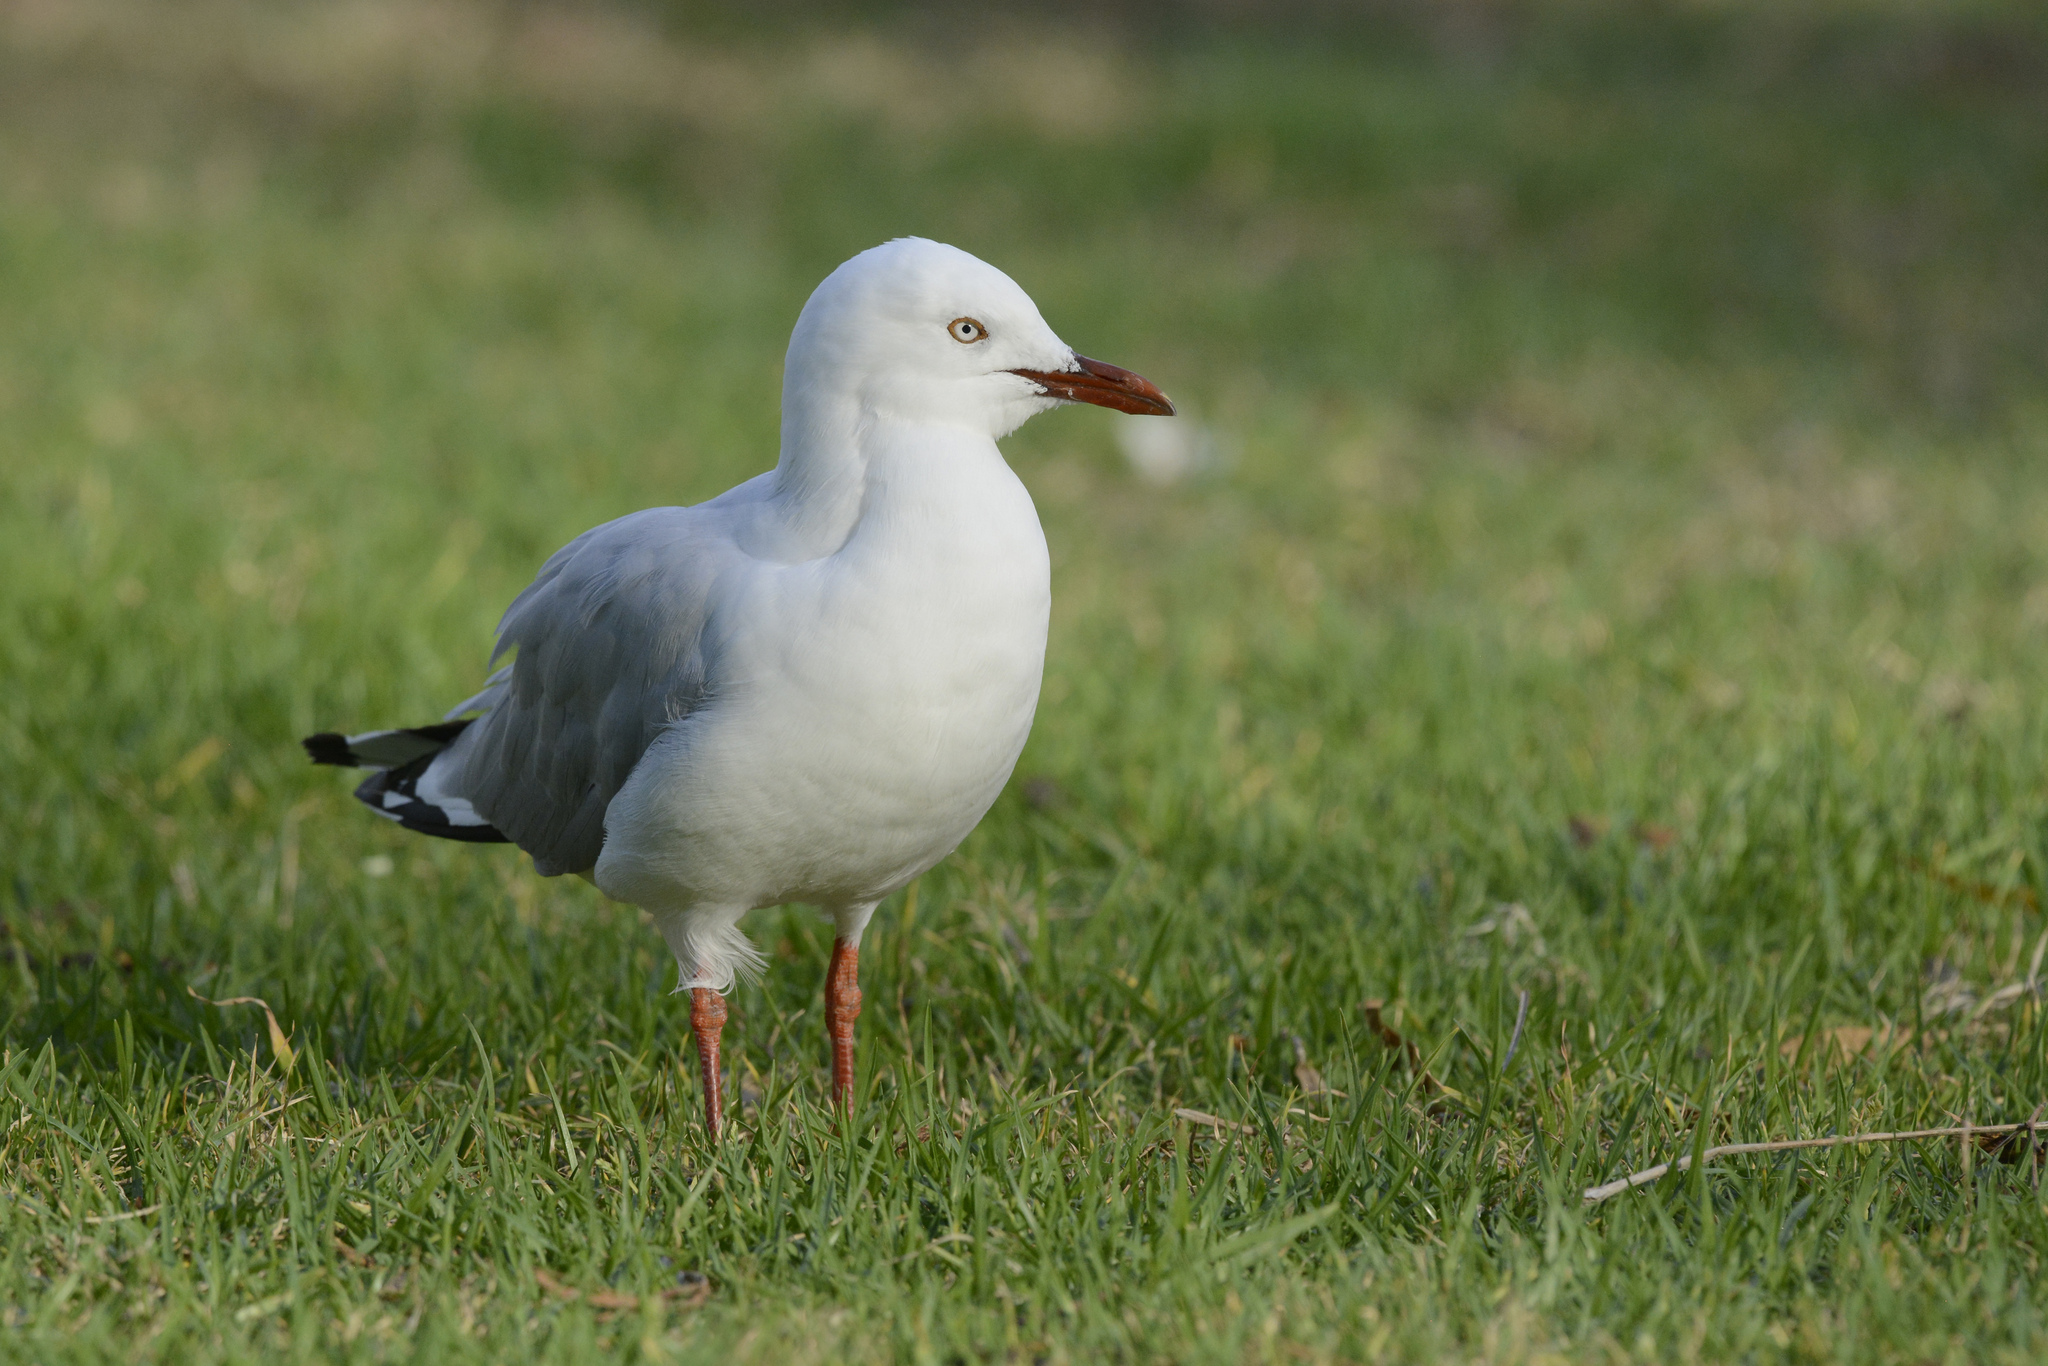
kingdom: Animalia
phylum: Chordata
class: Aves
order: Charadriiformes
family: Laridae
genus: Chroicocephalus
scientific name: Chroicocephalus novaehollandiae
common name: Silver gull
